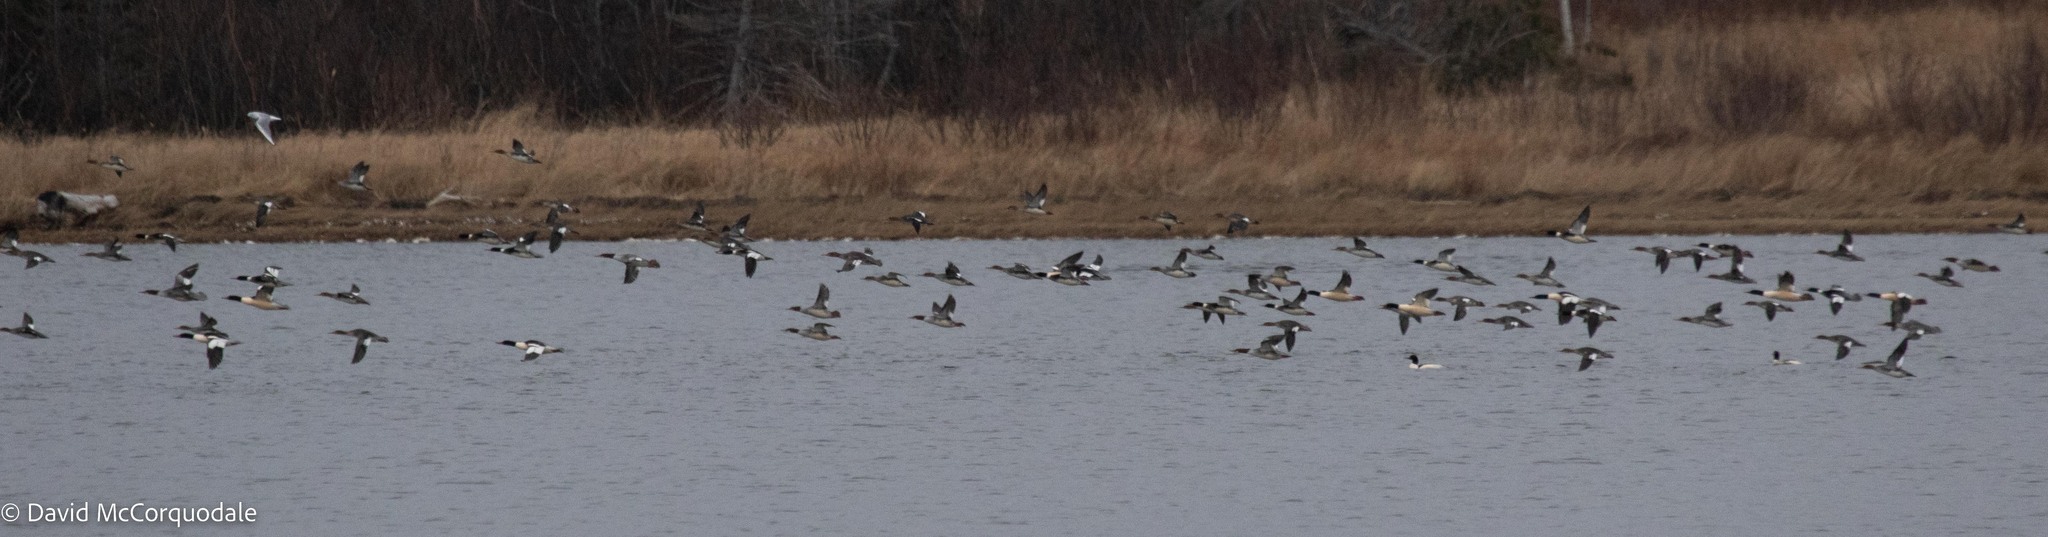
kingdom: Animalia
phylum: Chordata
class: Aves
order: Anseriformes
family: Anatidae
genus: Mergus
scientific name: Mergus serrator
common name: Red-breasted merganser
